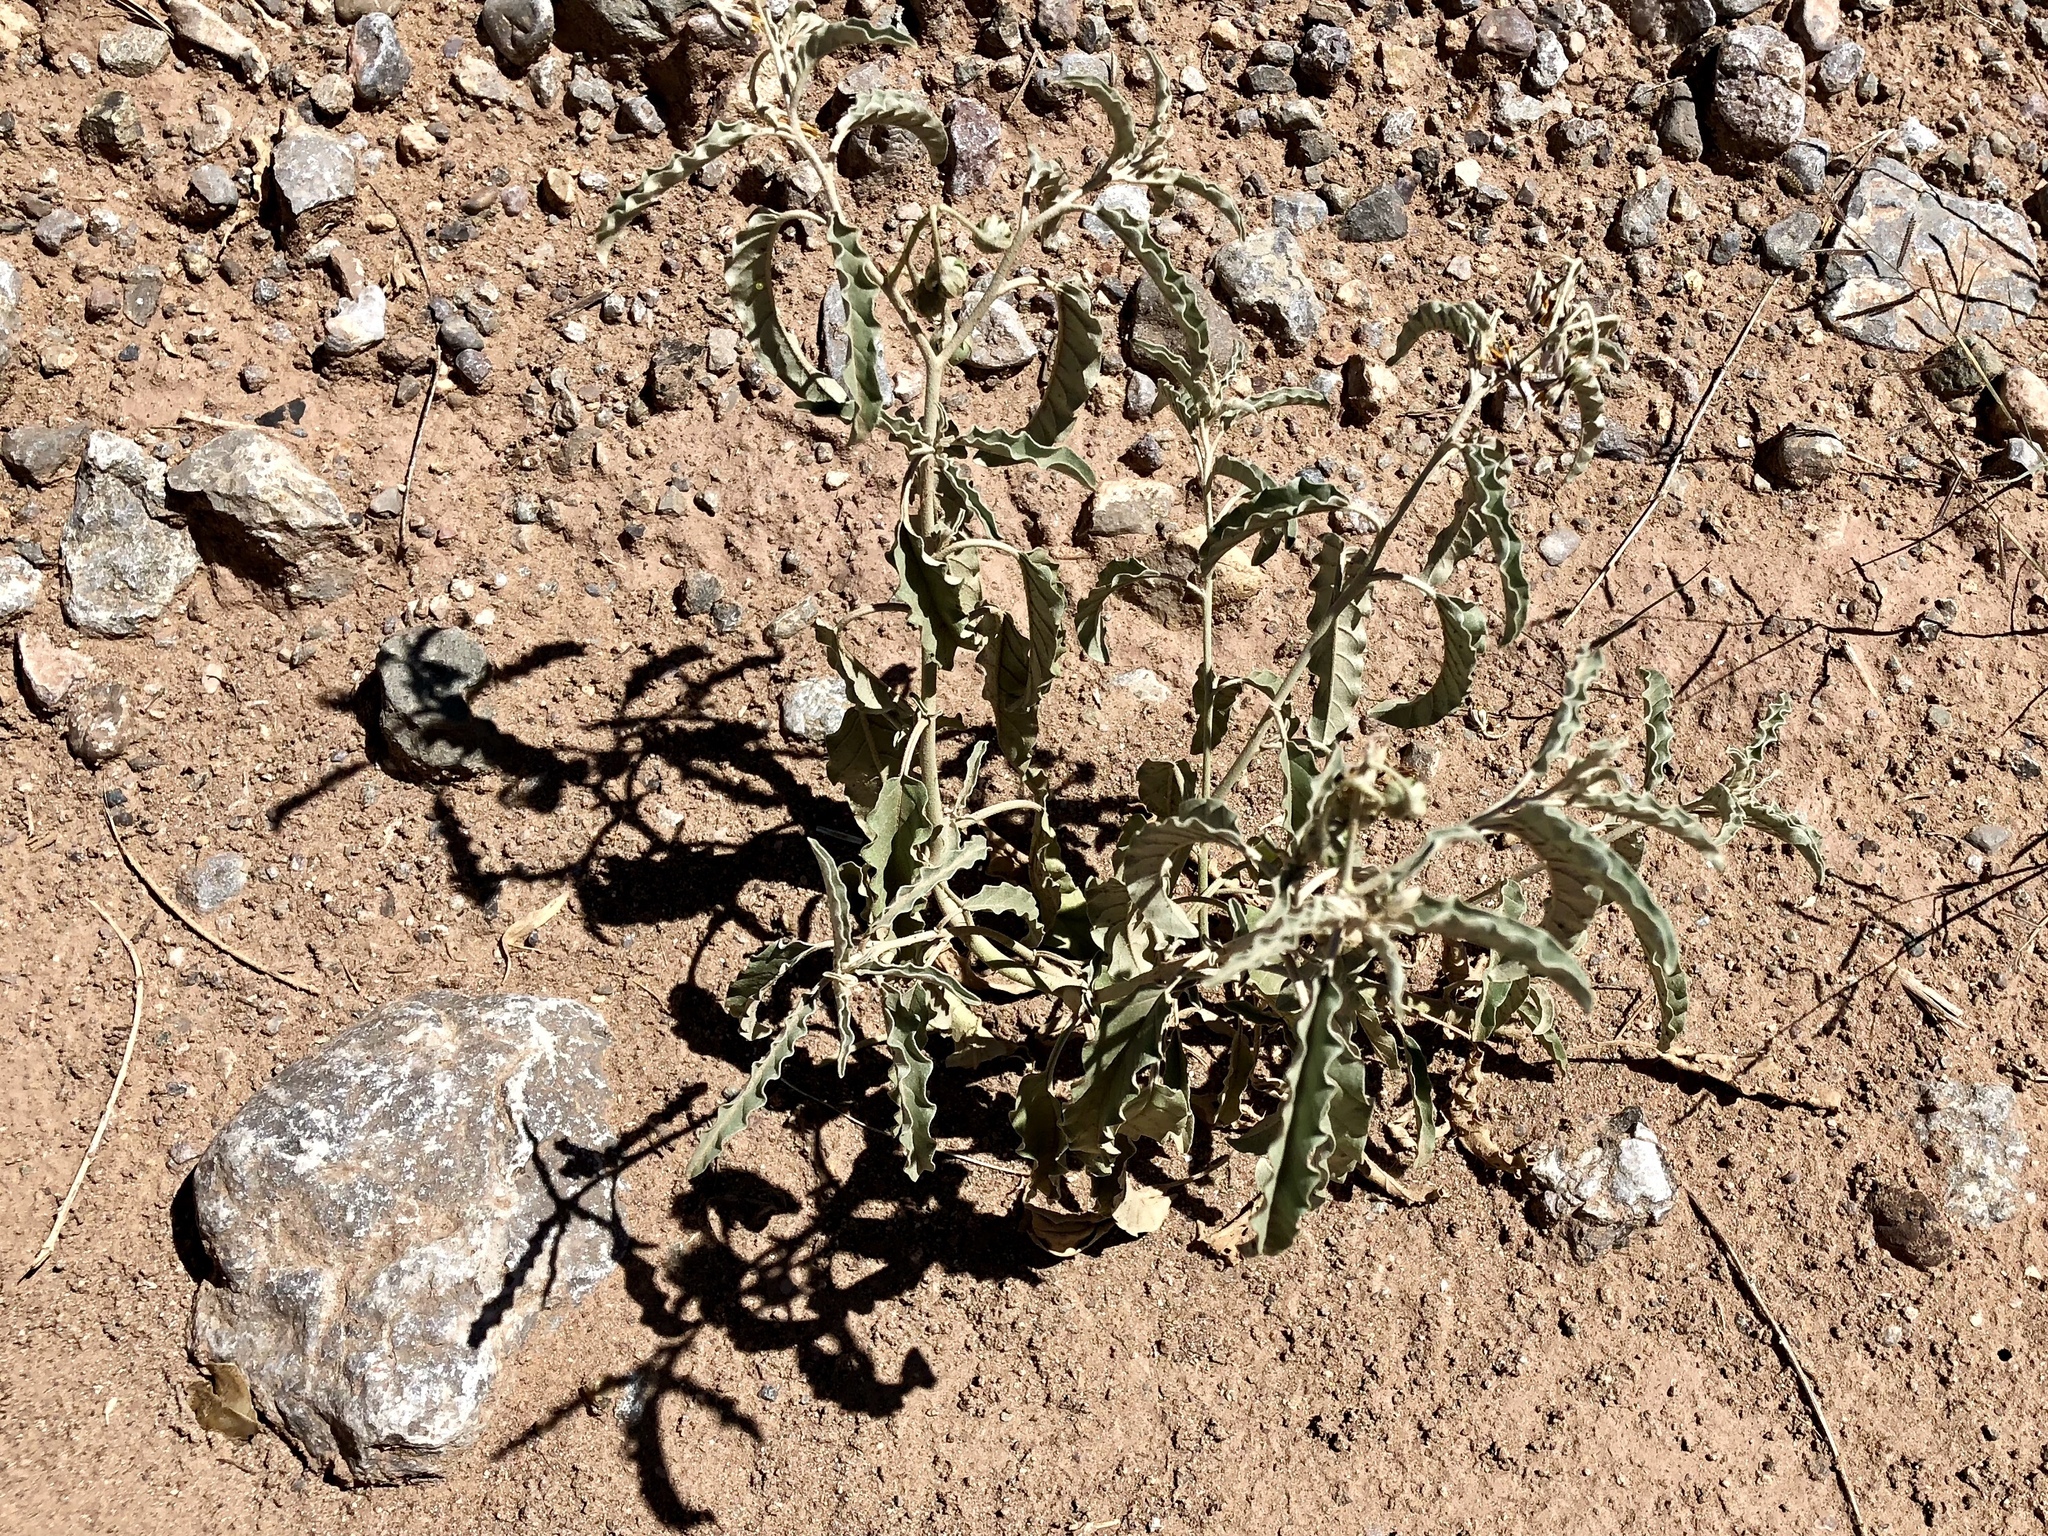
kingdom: Plantae
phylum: Tracheophyta
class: Magnoliopsida
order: Solanales
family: Solanaceae
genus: Solanum
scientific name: Solanum elaeagnifolium
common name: Silverleaf nightshade
